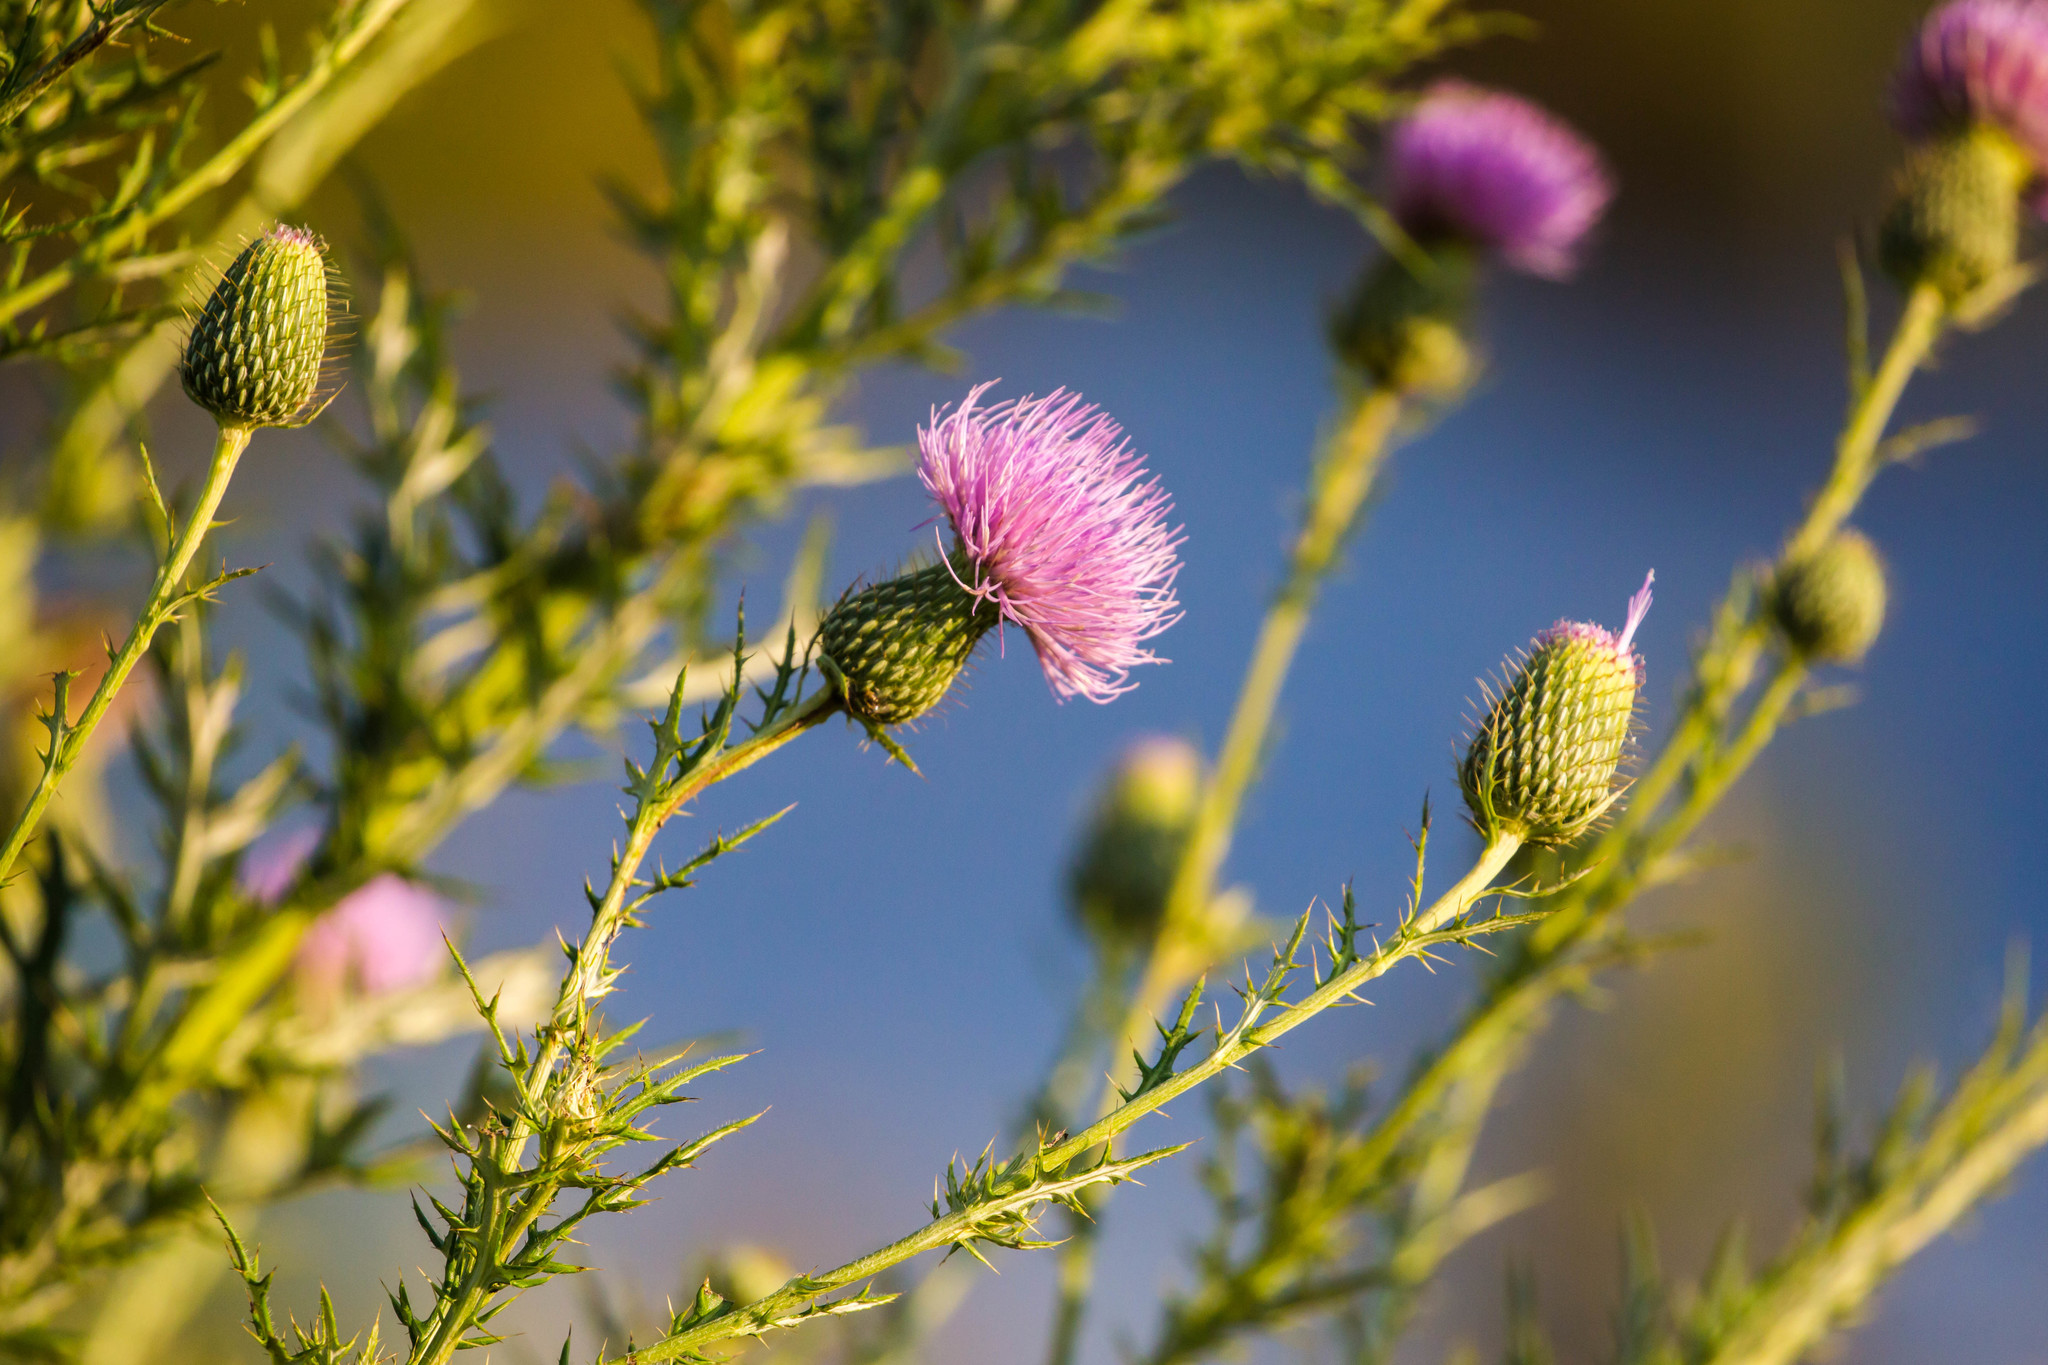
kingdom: Plantae
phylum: Tracheophyta
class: Magnoliopsida
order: Asterales
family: Asteraceae
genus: Cirsium
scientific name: Cirsium discolor
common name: Field thistle
